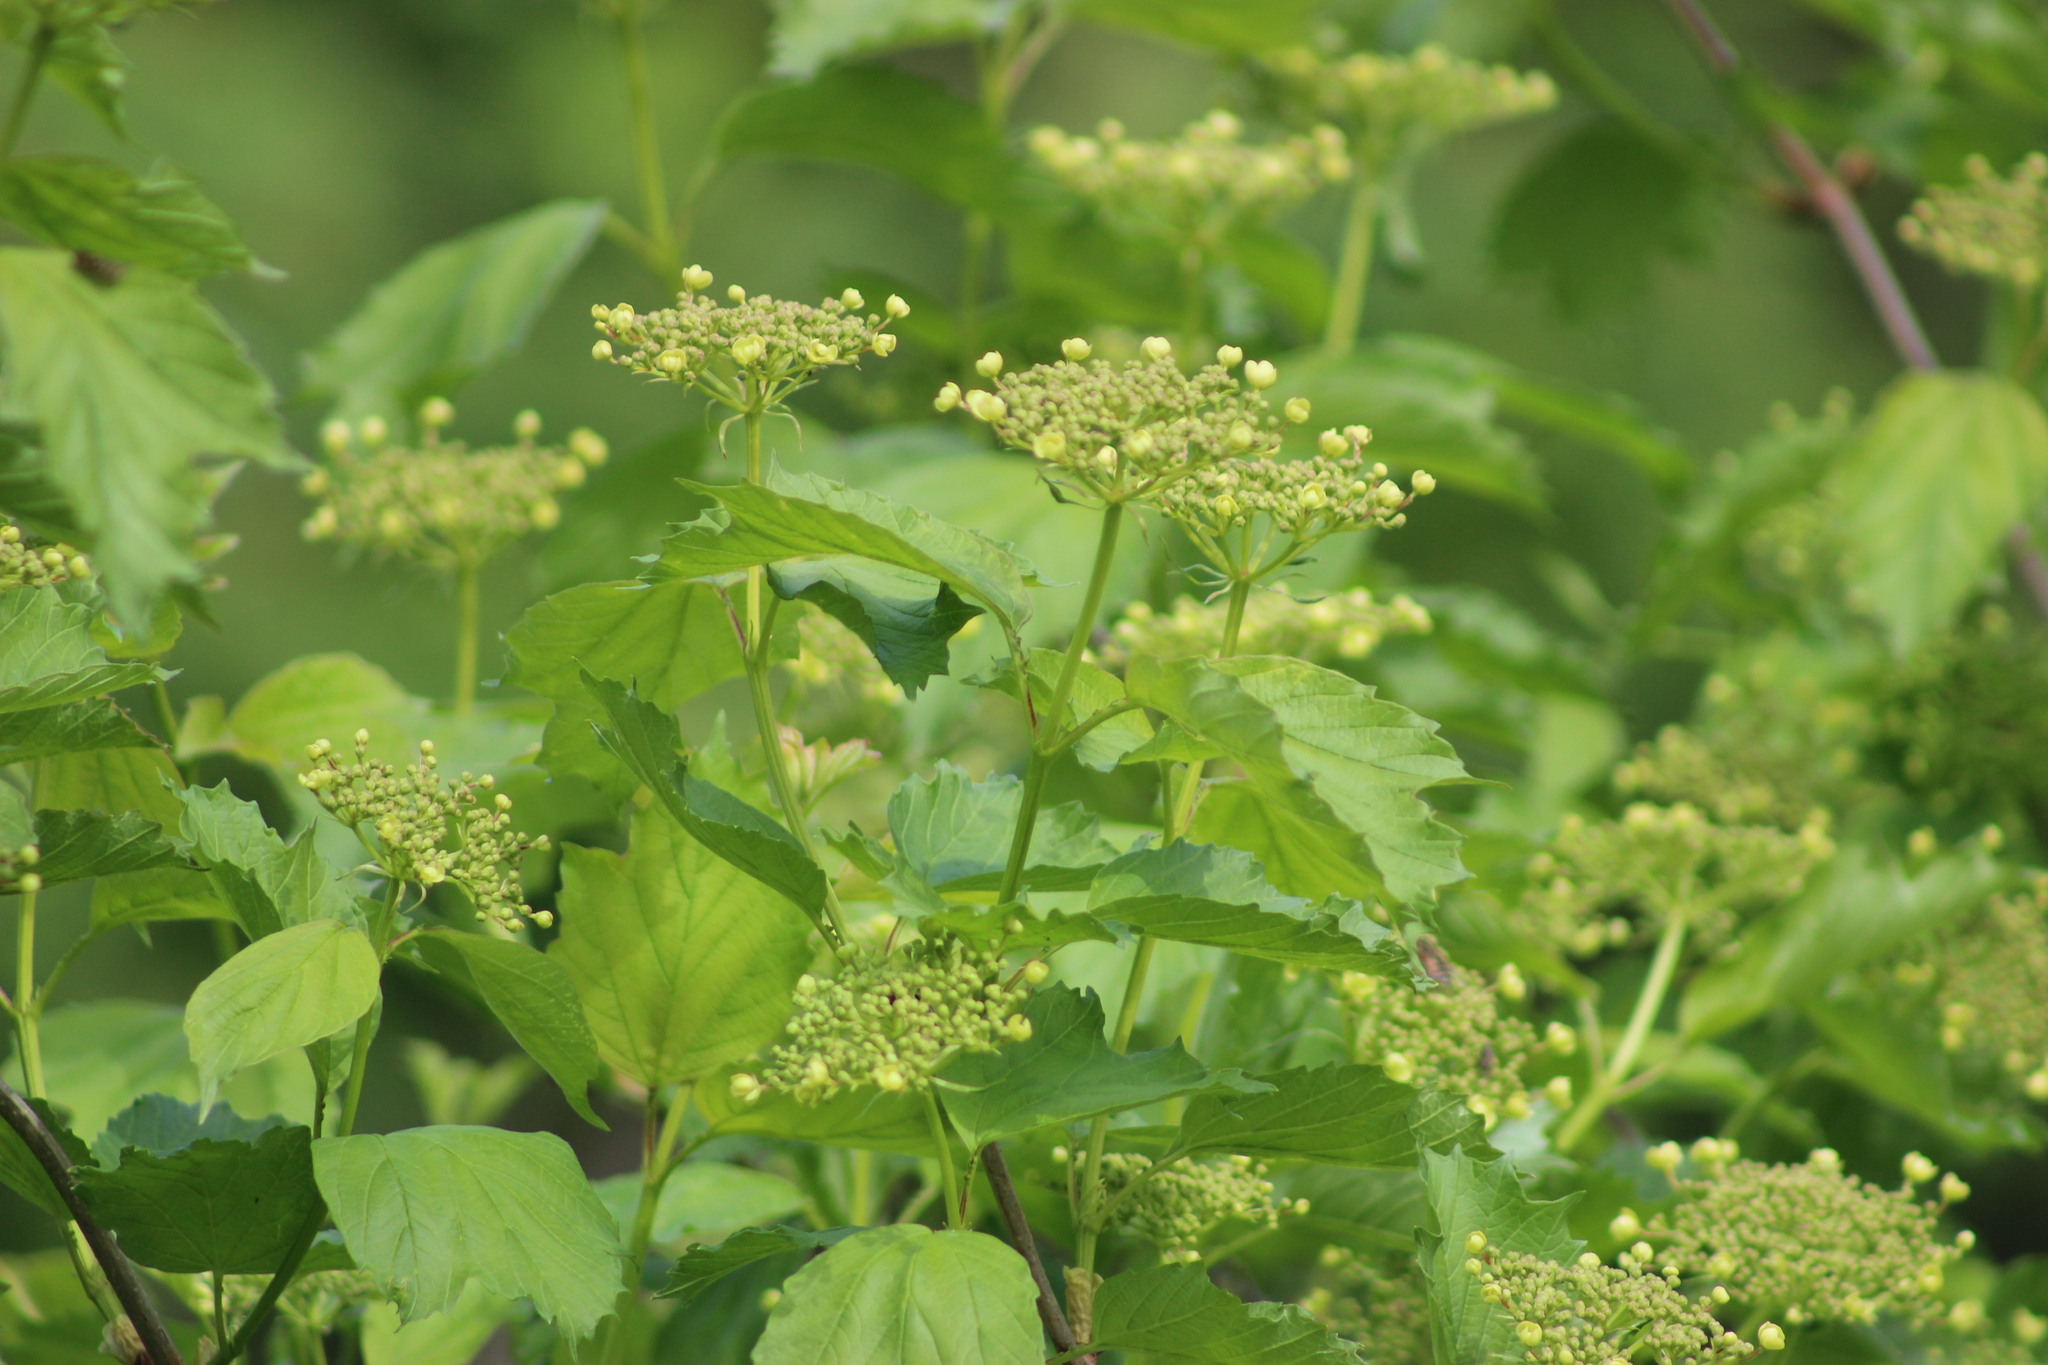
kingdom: Plantae
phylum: Tracheophyta
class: Magnoliopsida
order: Dipsacales
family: Viburnaceae
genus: Viburnum
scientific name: Viburnum opulus
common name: Guelder-rose
